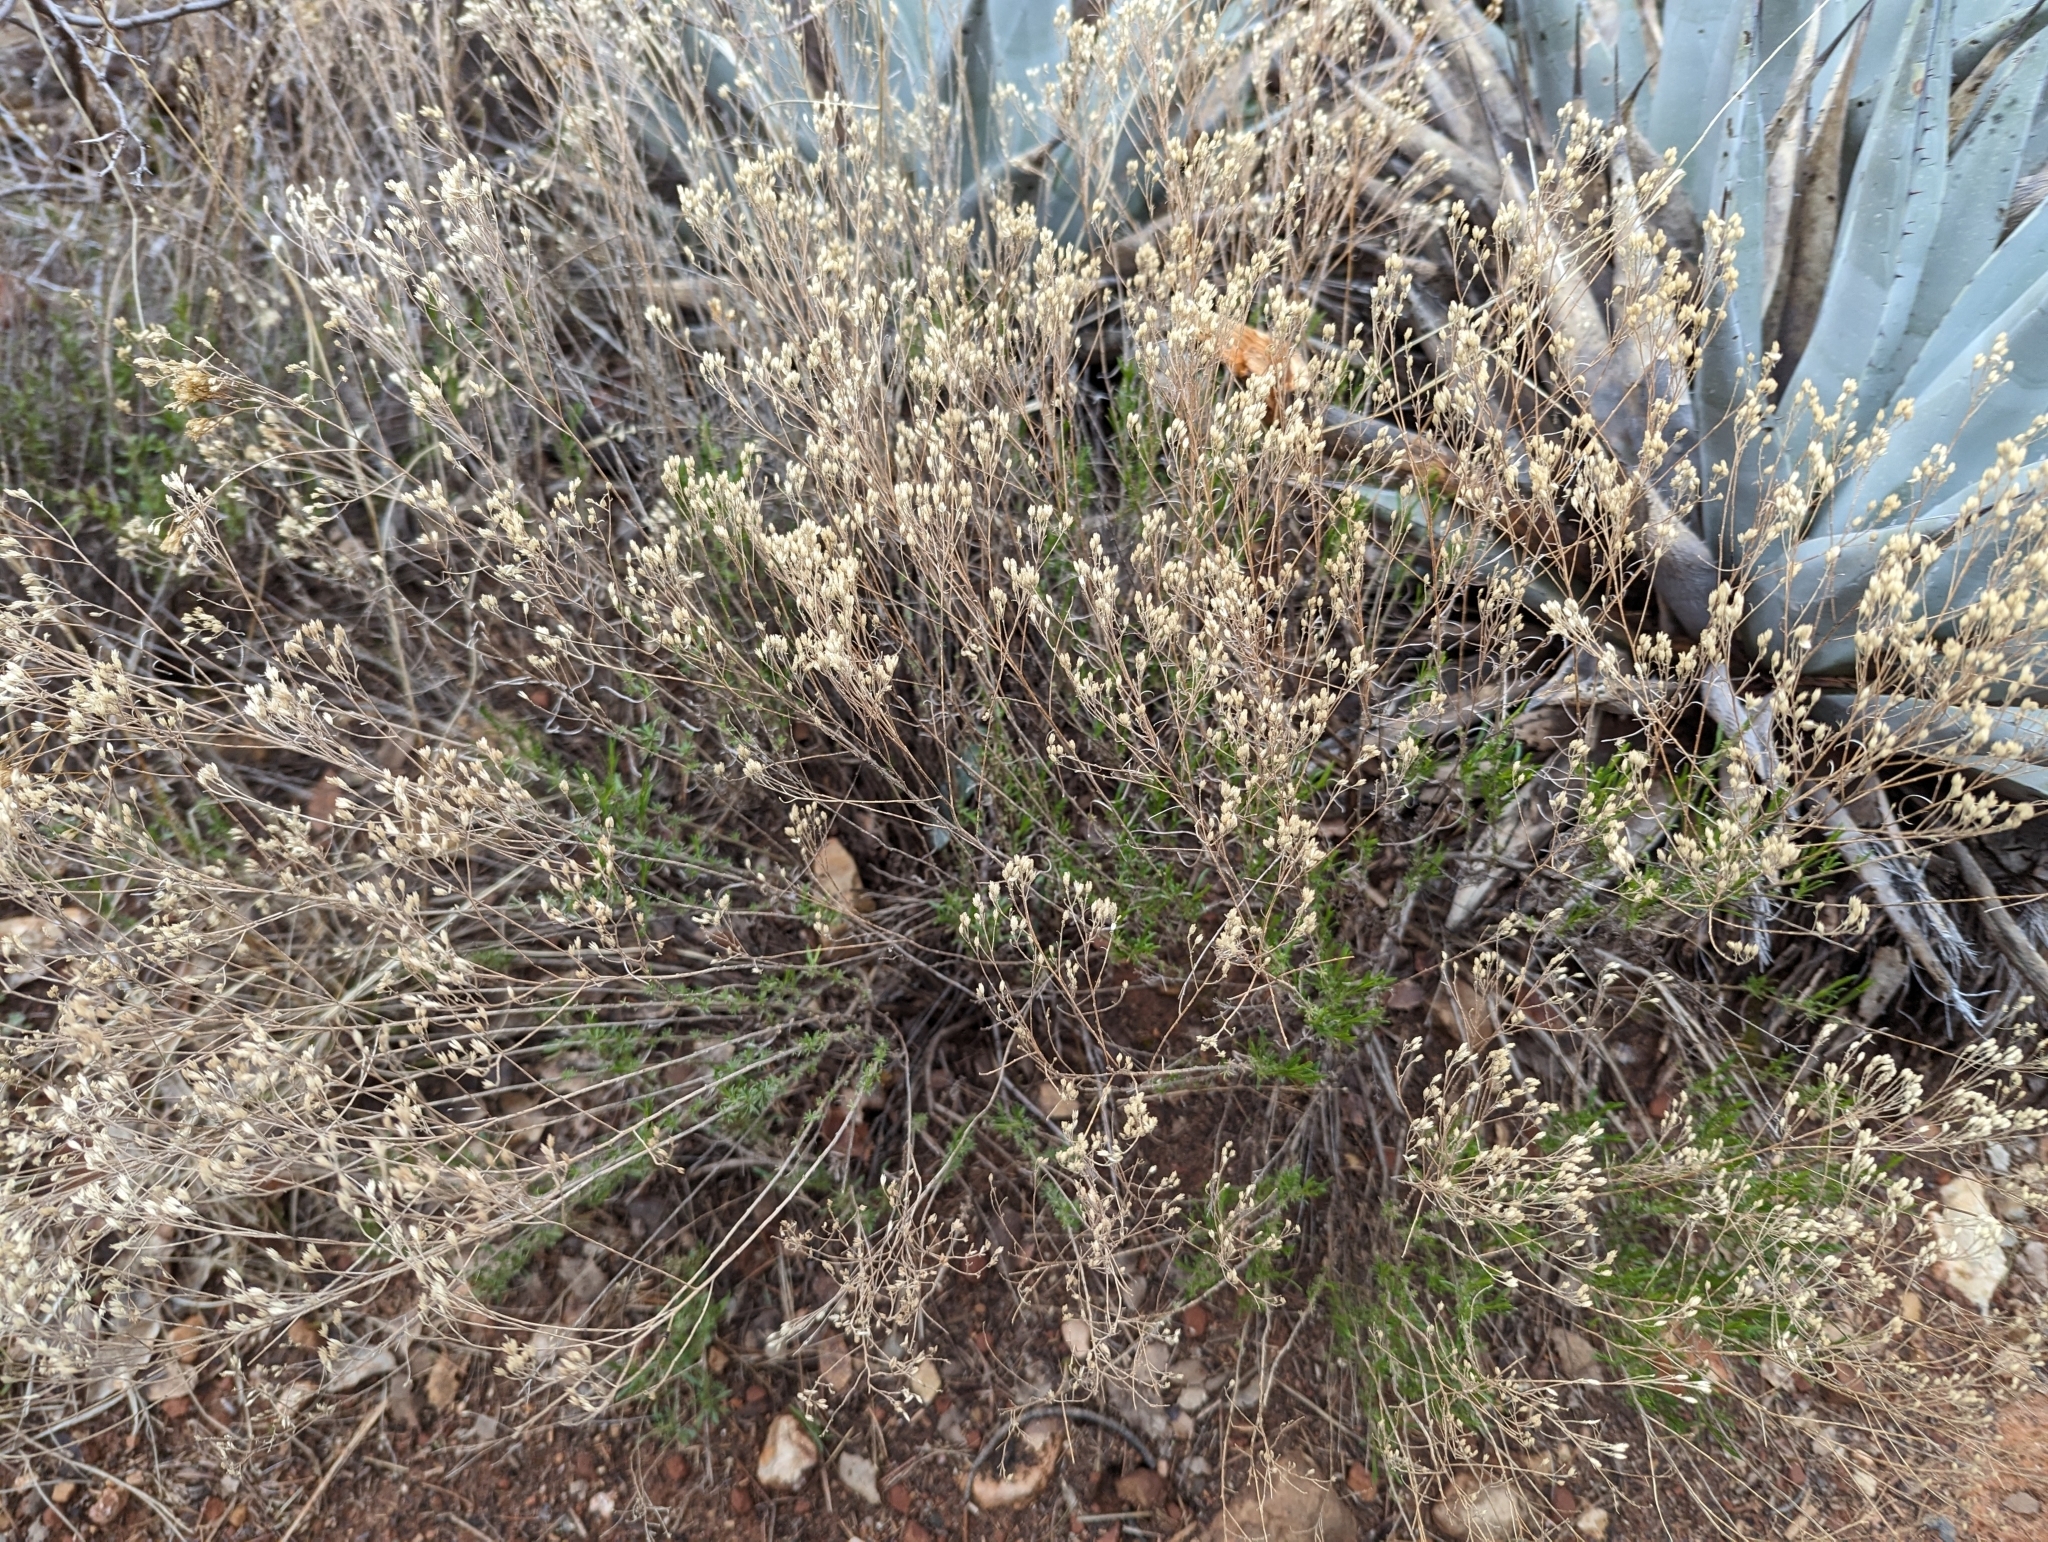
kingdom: Plantae
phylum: Tracheophyta
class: Magnoliopsida
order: Asterales
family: Asteraceae
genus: Gutierrezia
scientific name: Gutierrezia sarothrae
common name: Broom snakeweed
